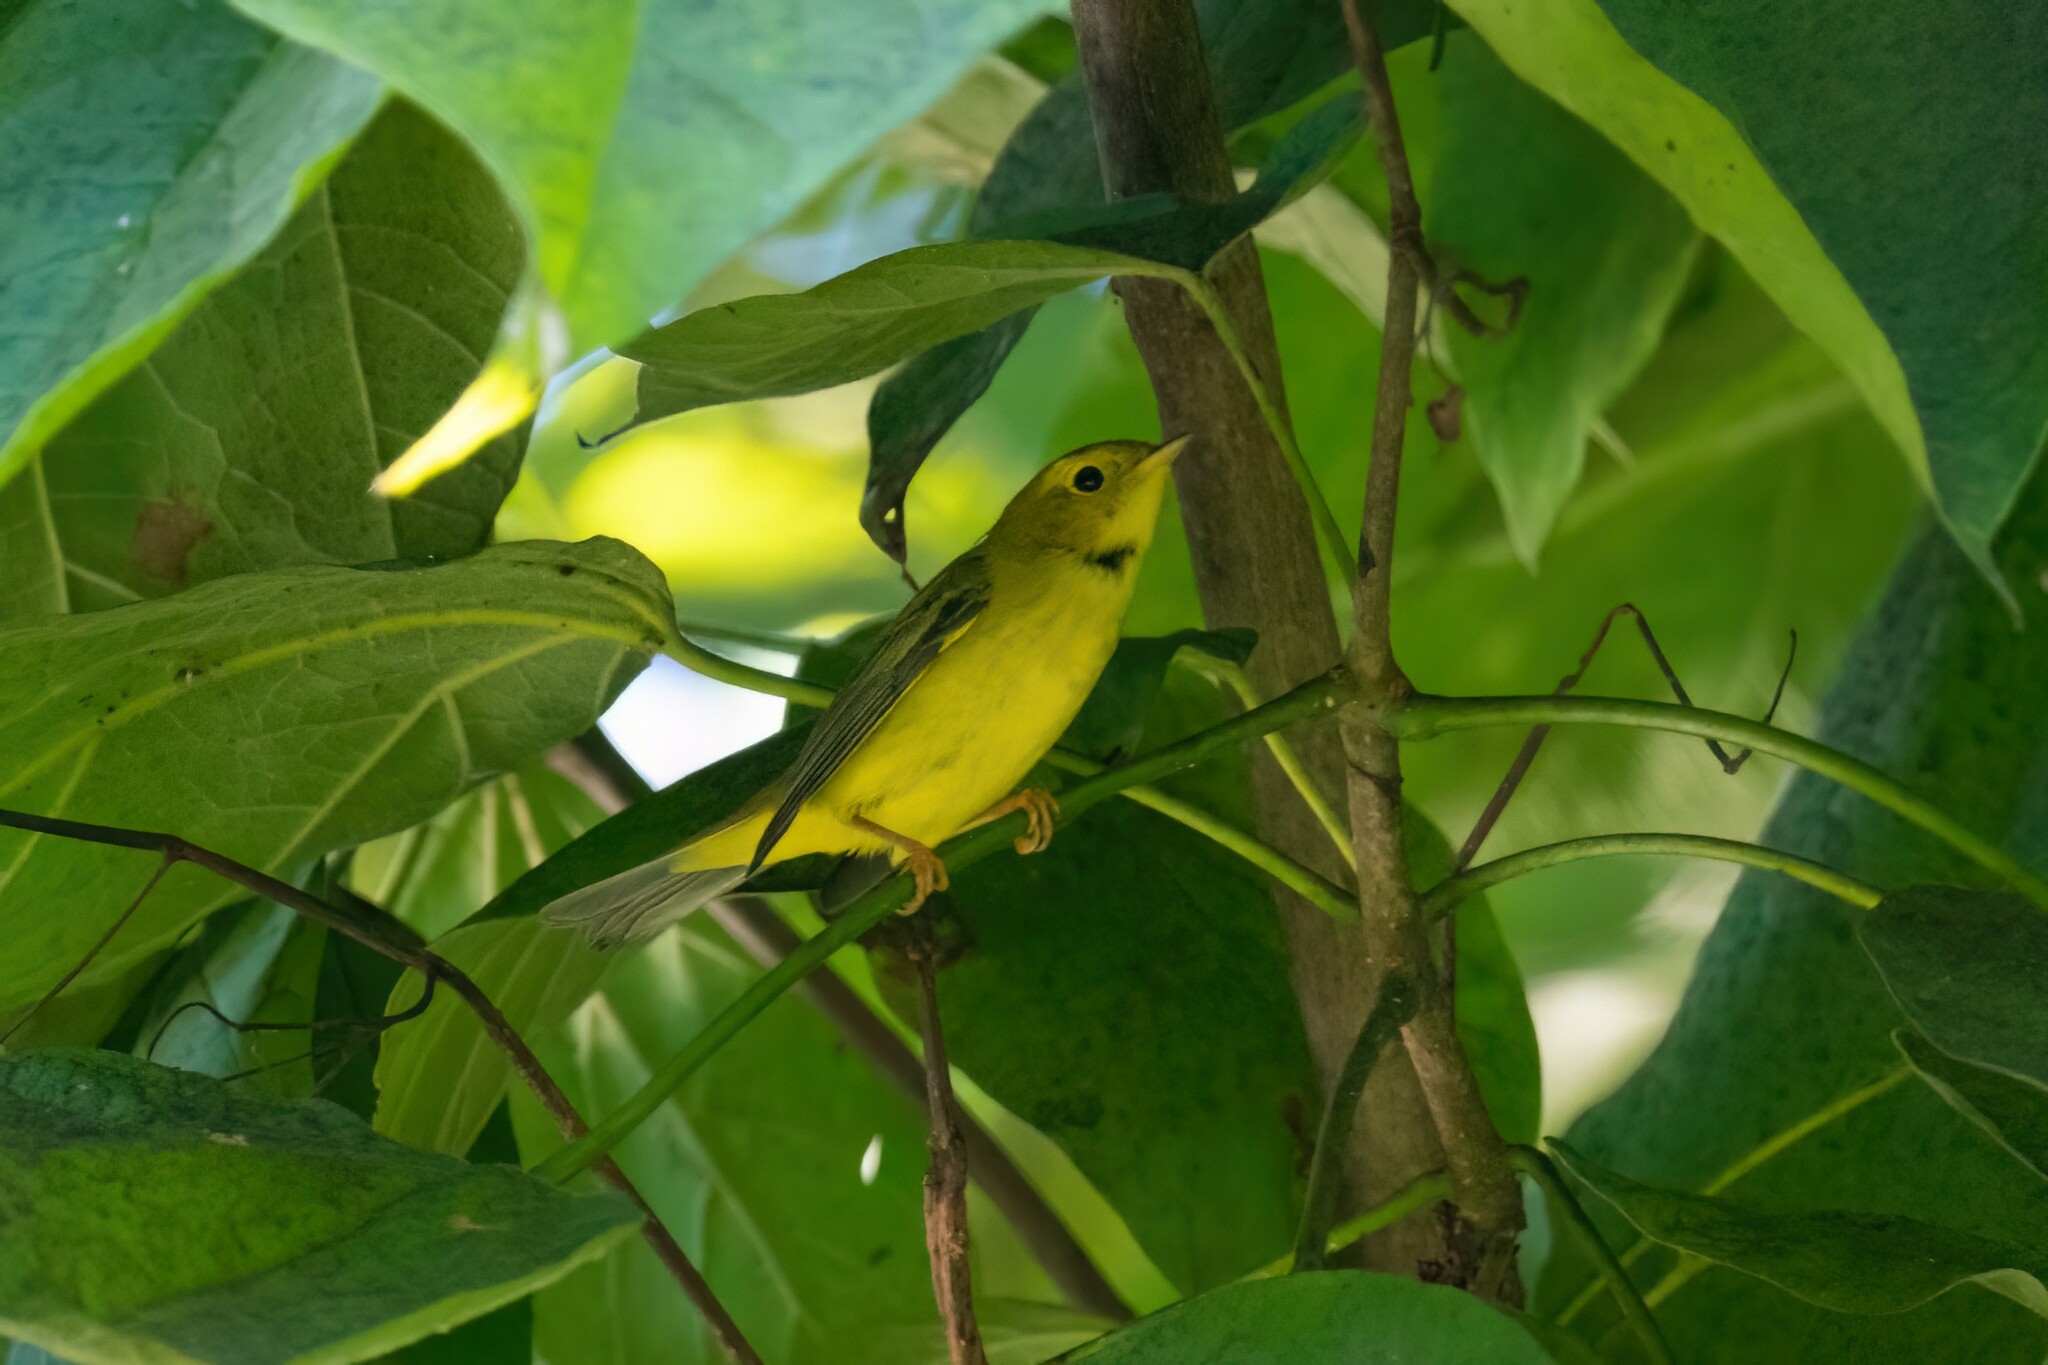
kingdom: Animalia
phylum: Chordata
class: Aves
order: Passeriformes
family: Parulidae
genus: Cardellina
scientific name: Cardellina pusilla
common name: Wilson's warbler
